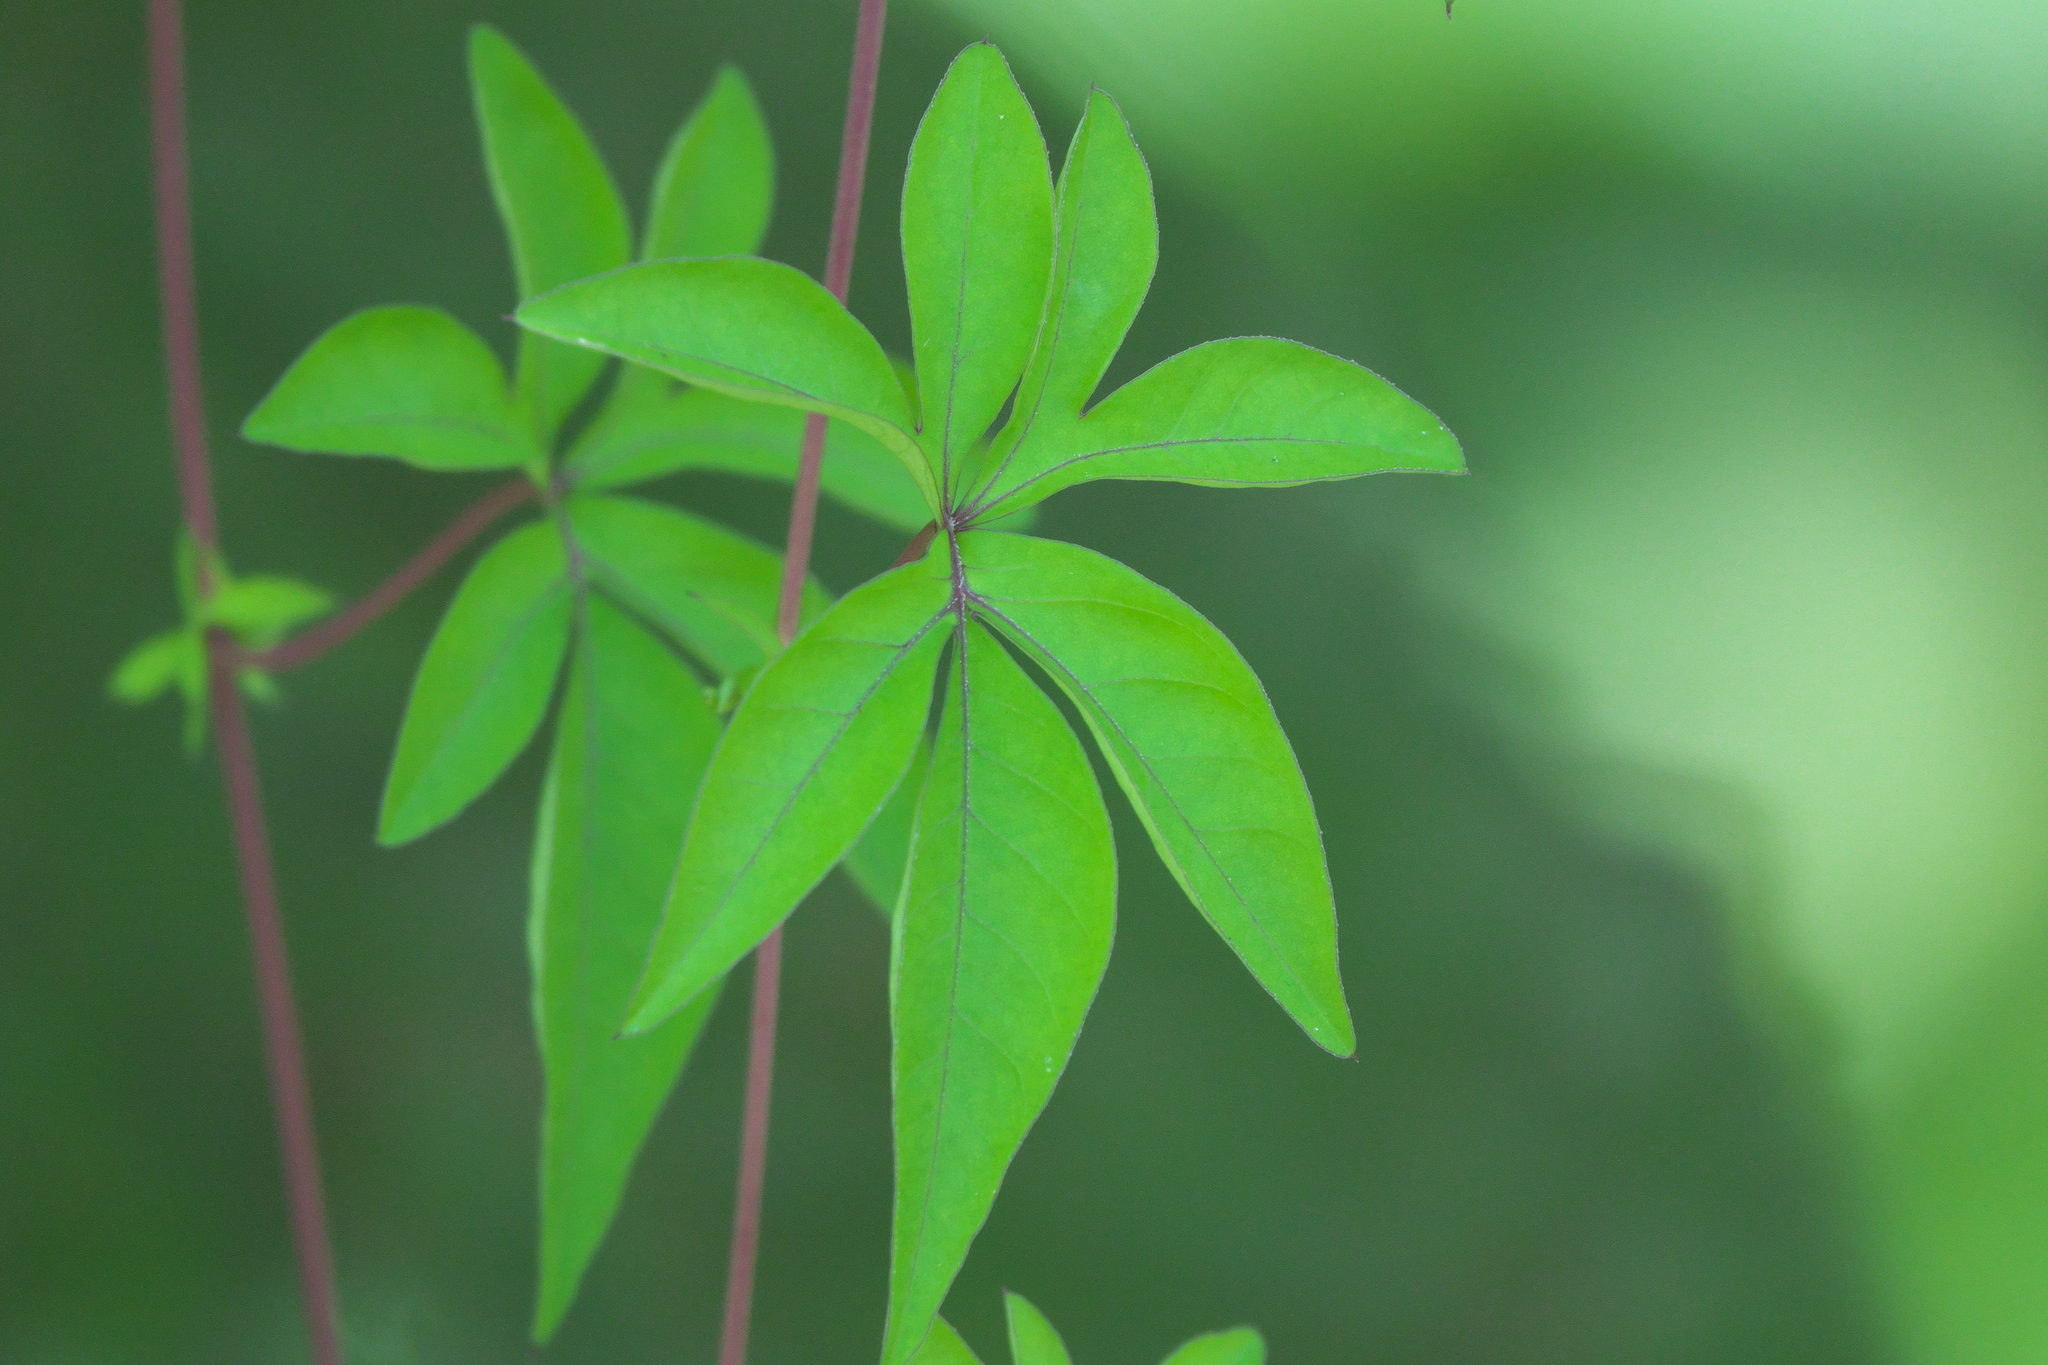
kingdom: Plantae
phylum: Tracheophyta
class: Magnoliopsida
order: Solanales
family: Convolvulaceae
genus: Ipomoea
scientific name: Ipomoea cairica
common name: Mile a minute vine
